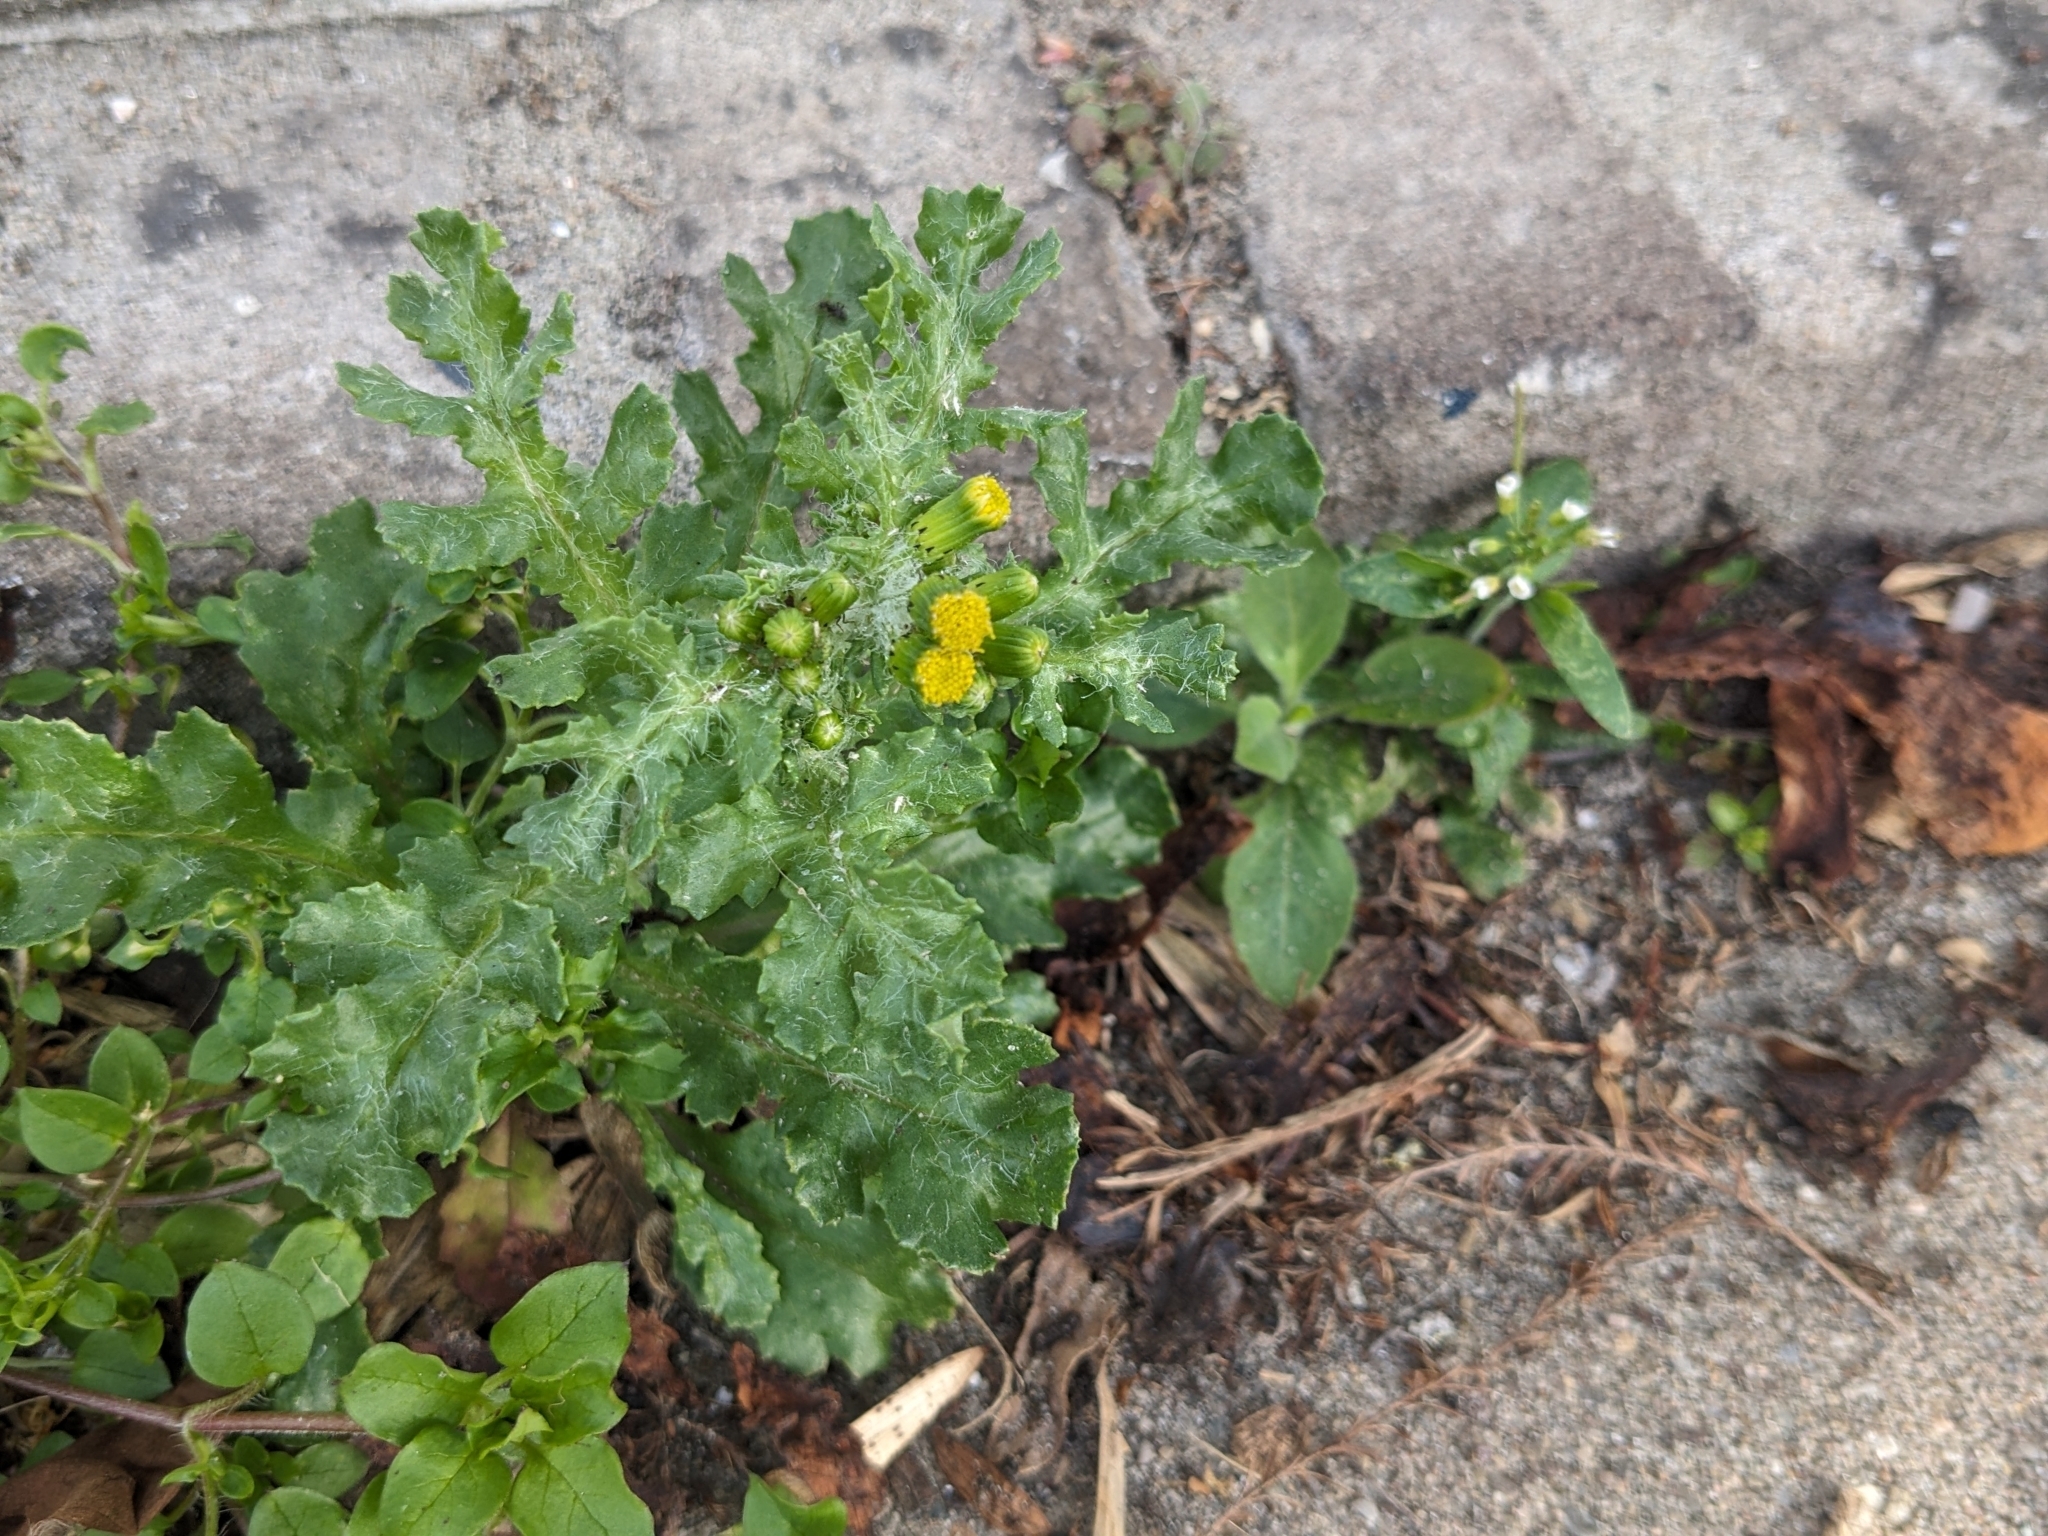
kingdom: Plantae
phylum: Tracheophyta
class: Magnoliopsida
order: Asterales
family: Asteraceae
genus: Senecio
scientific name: Senecio vulgaris
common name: Old-man-in-the-spring
